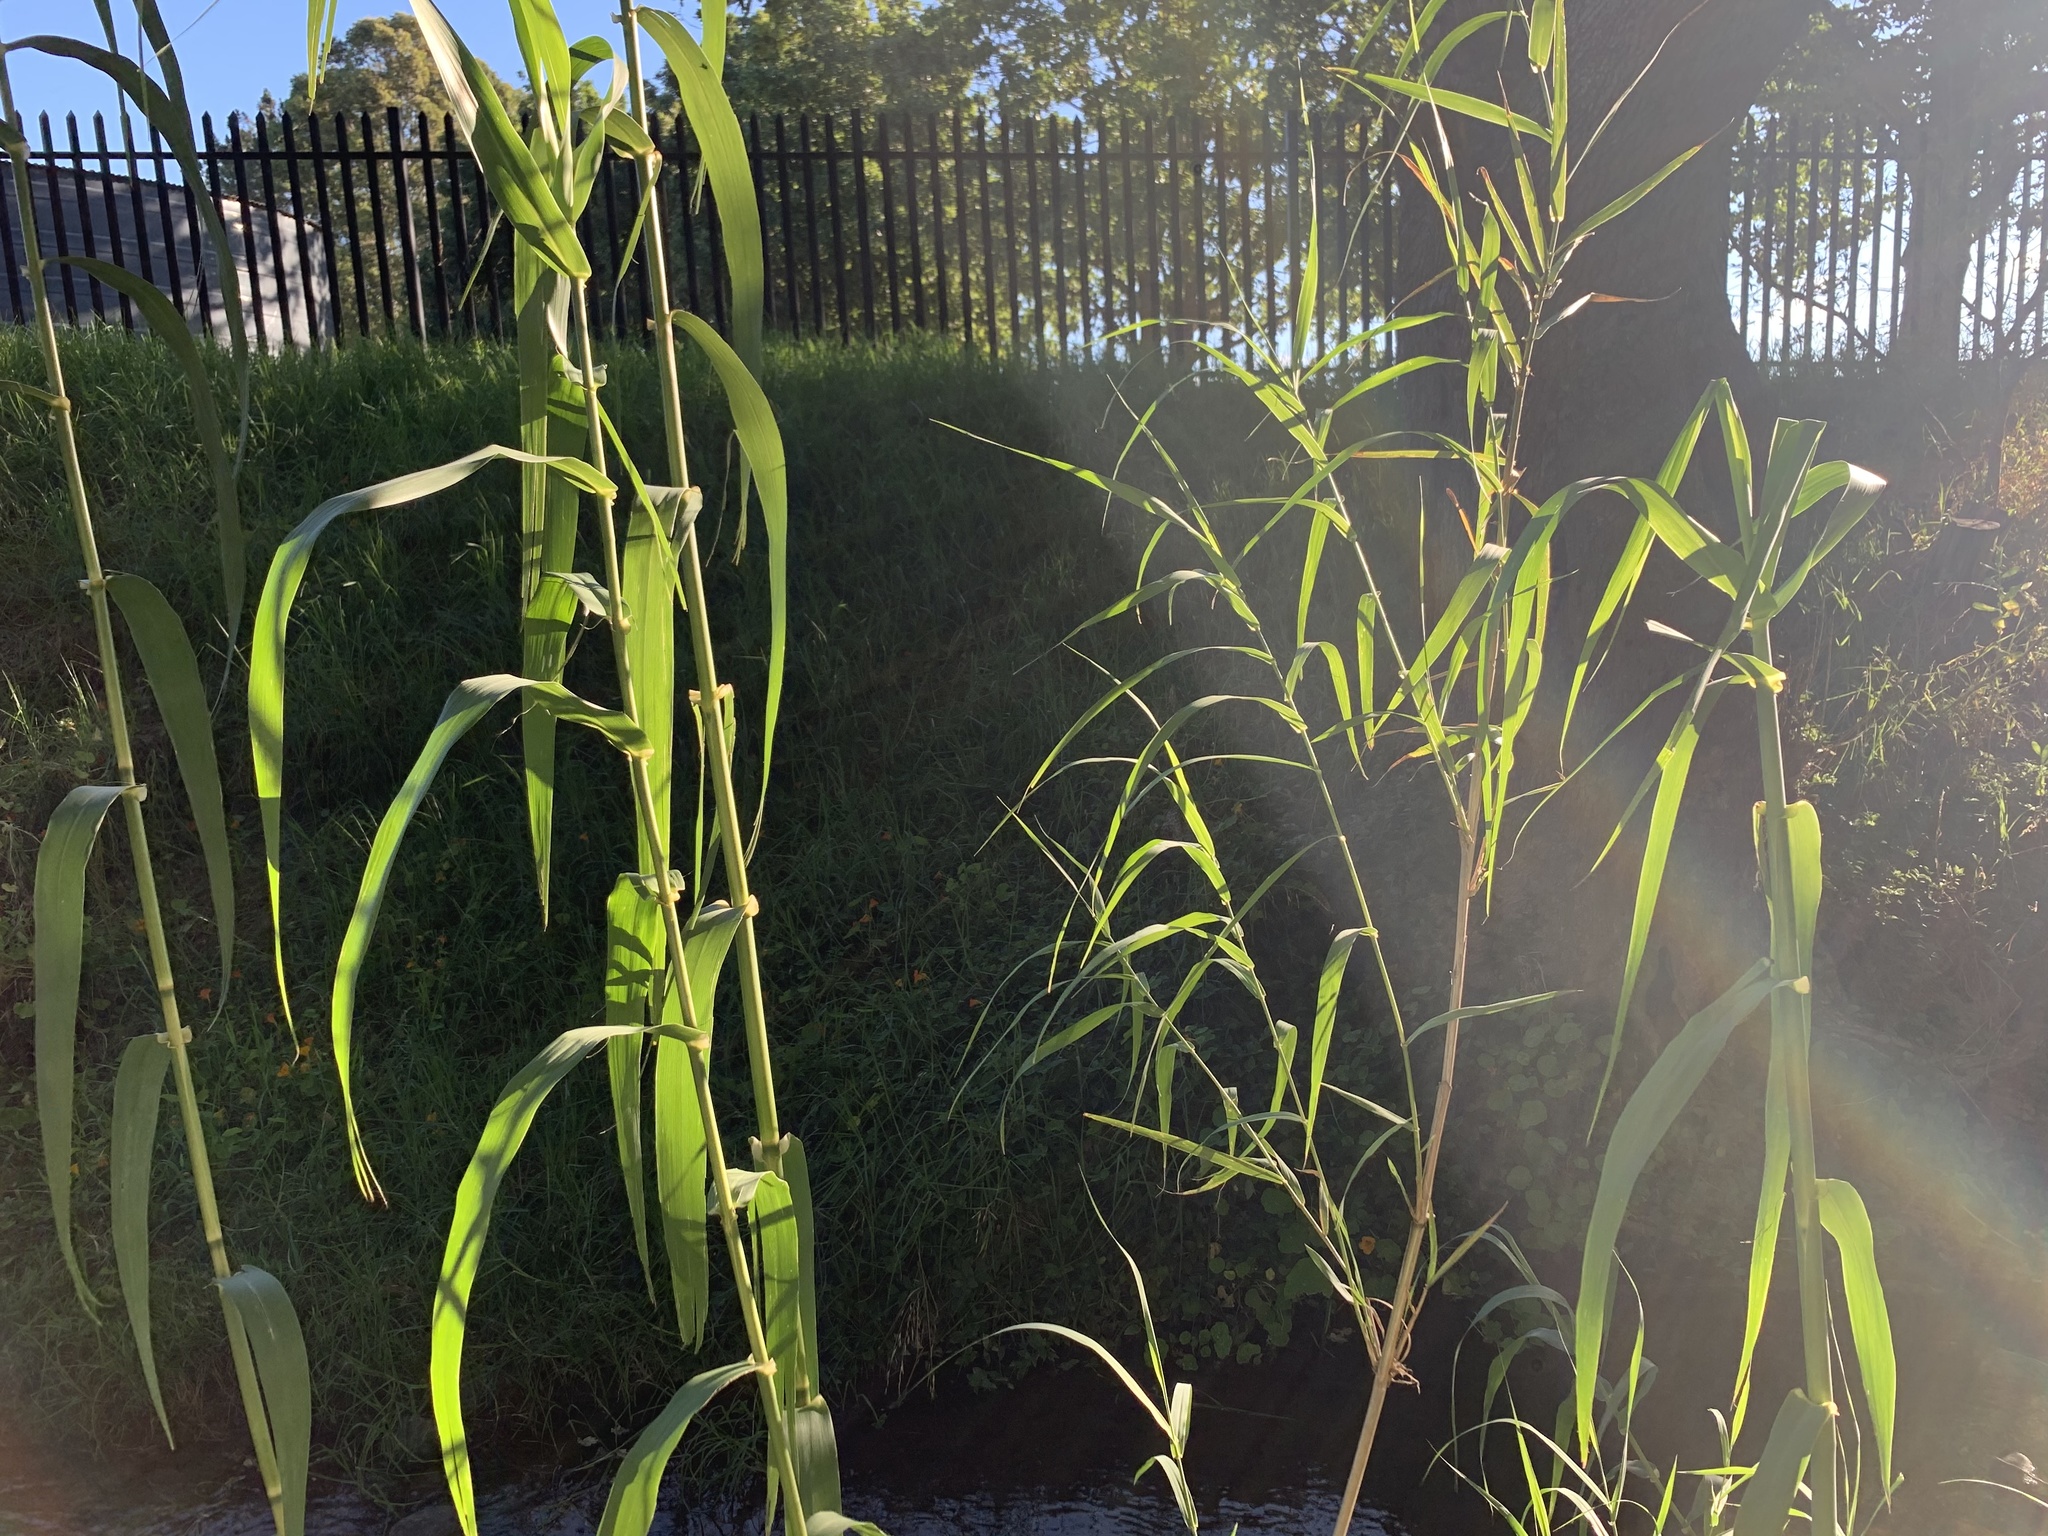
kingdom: Plantae
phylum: Tracheophyta
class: Liliopsida
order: Poales
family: Poaceae
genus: Arundo
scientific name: Arundo donax
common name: Giant reed
